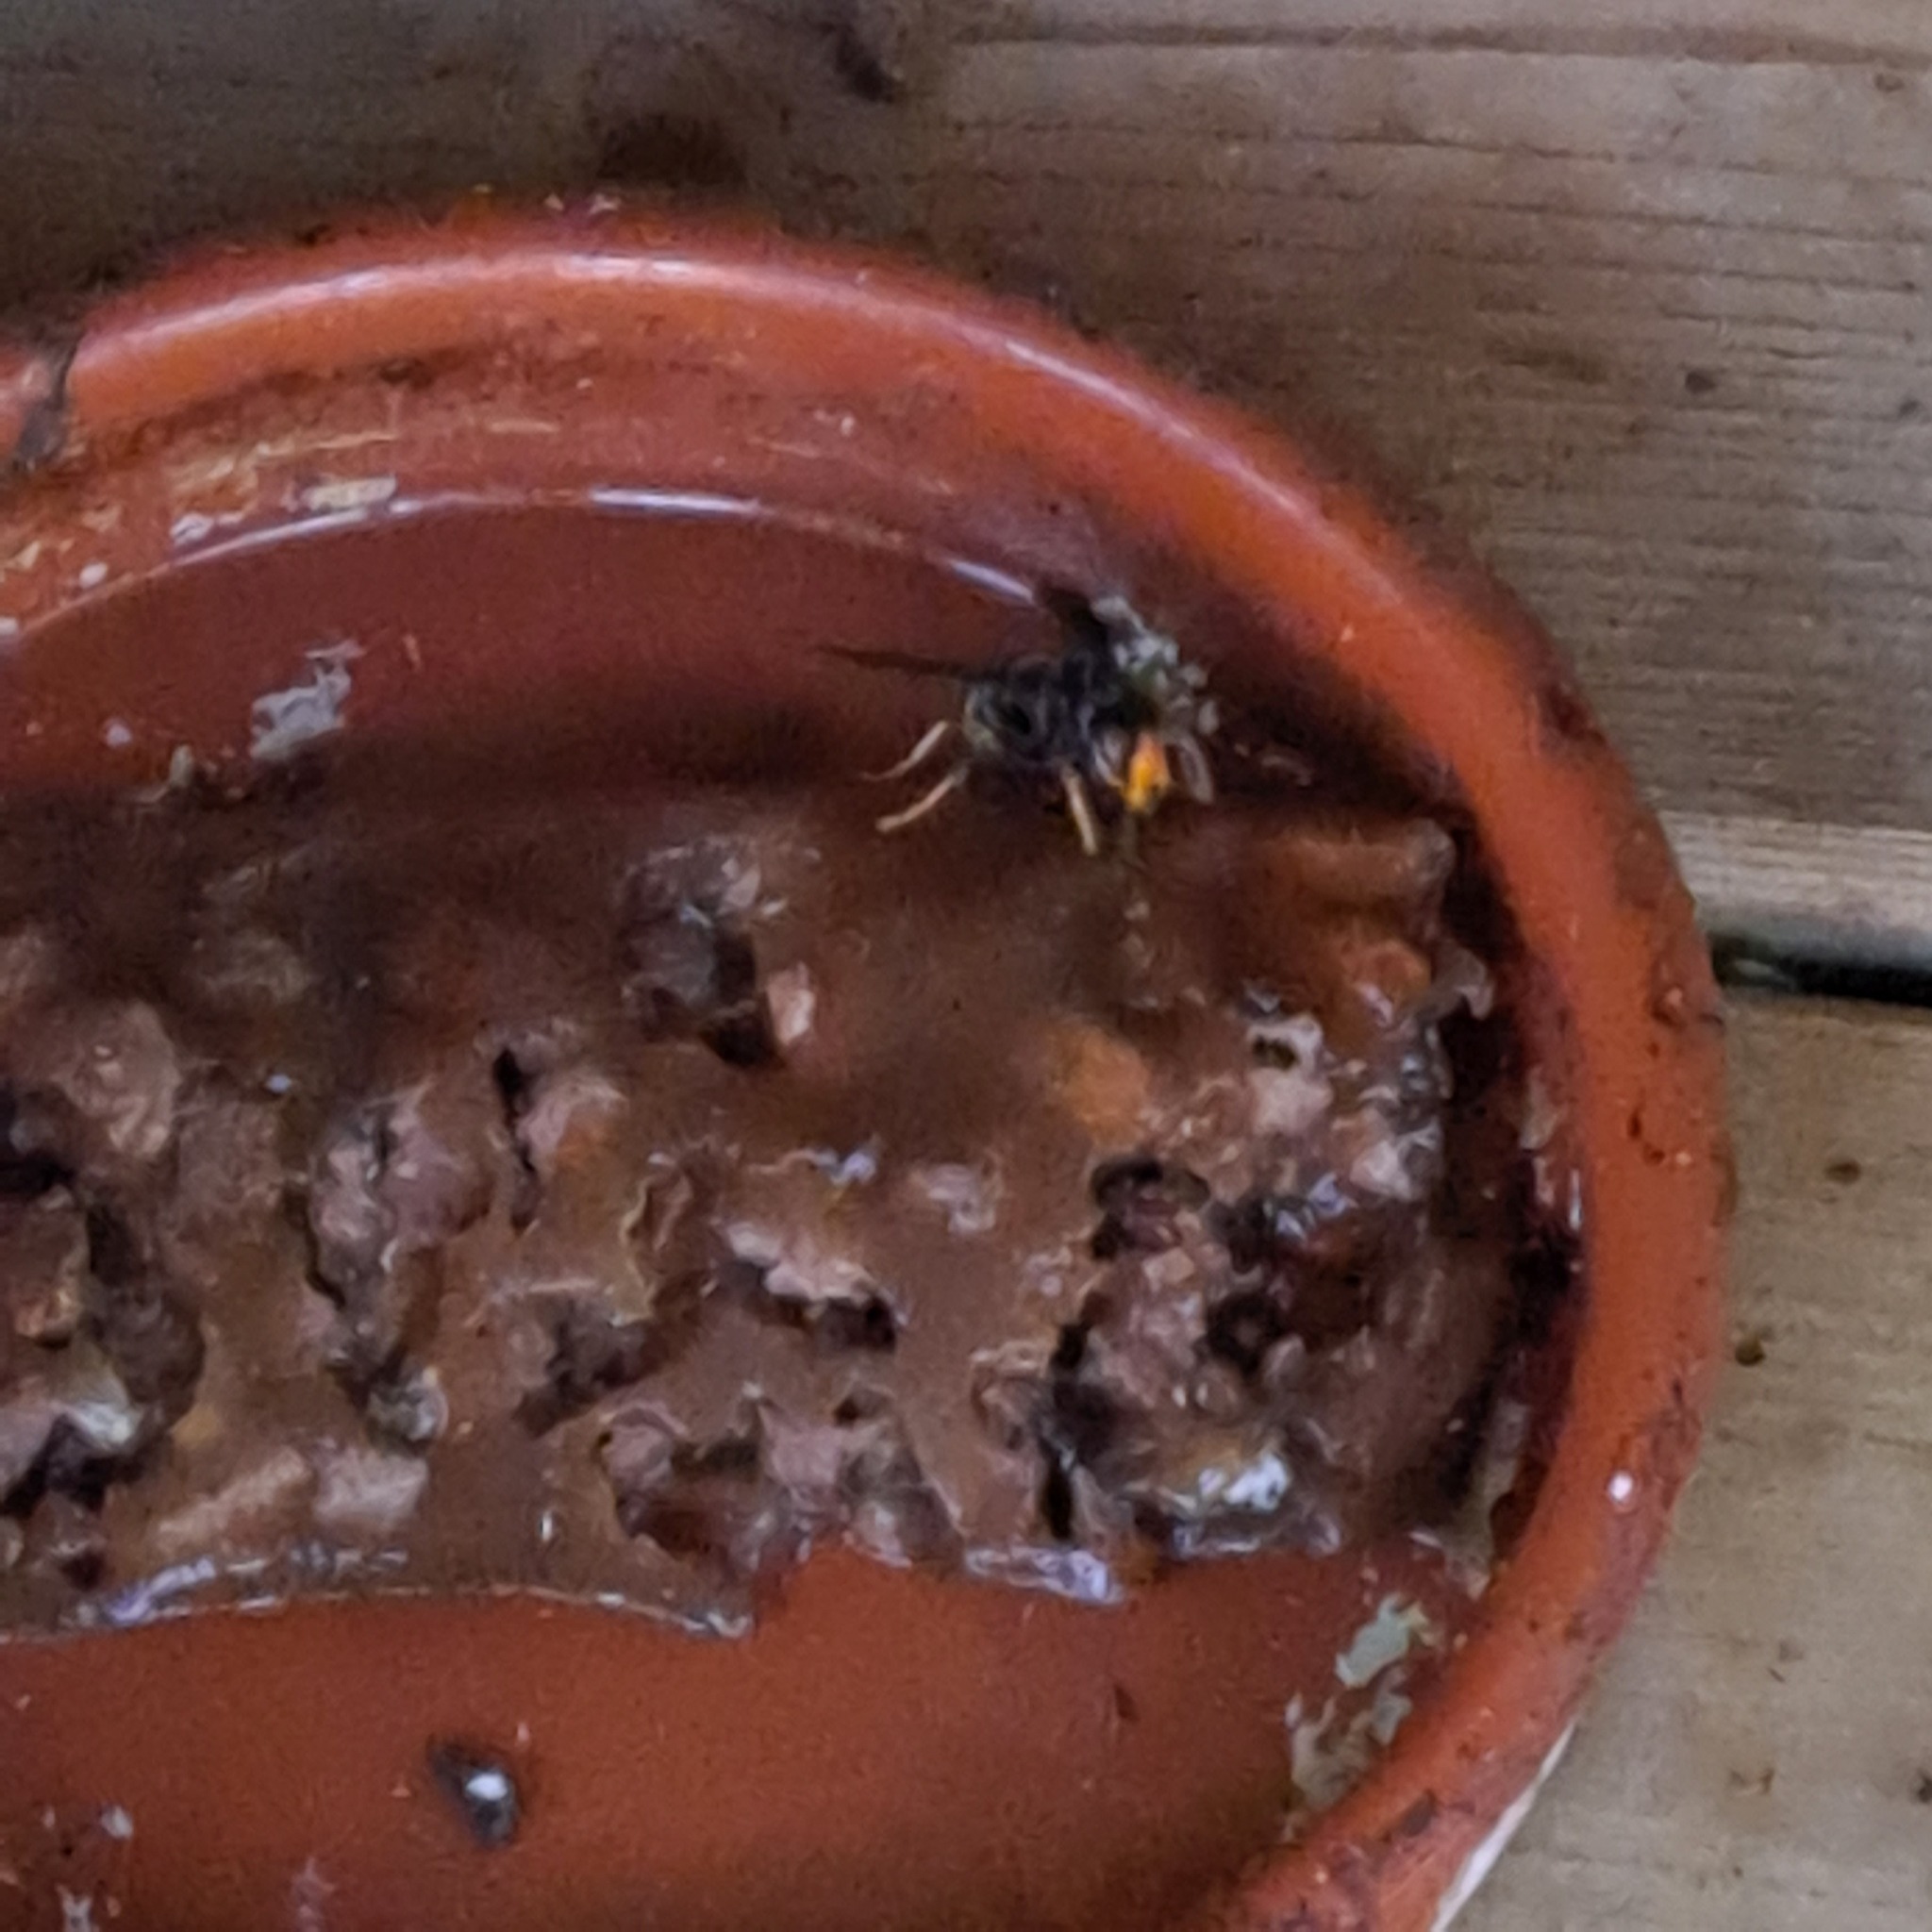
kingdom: Animalia
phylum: Arthropoda
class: Insecta
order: Hymenoptera
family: Vespidae
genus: Vespa
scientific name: Vespa velutina
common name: Asian hornet
